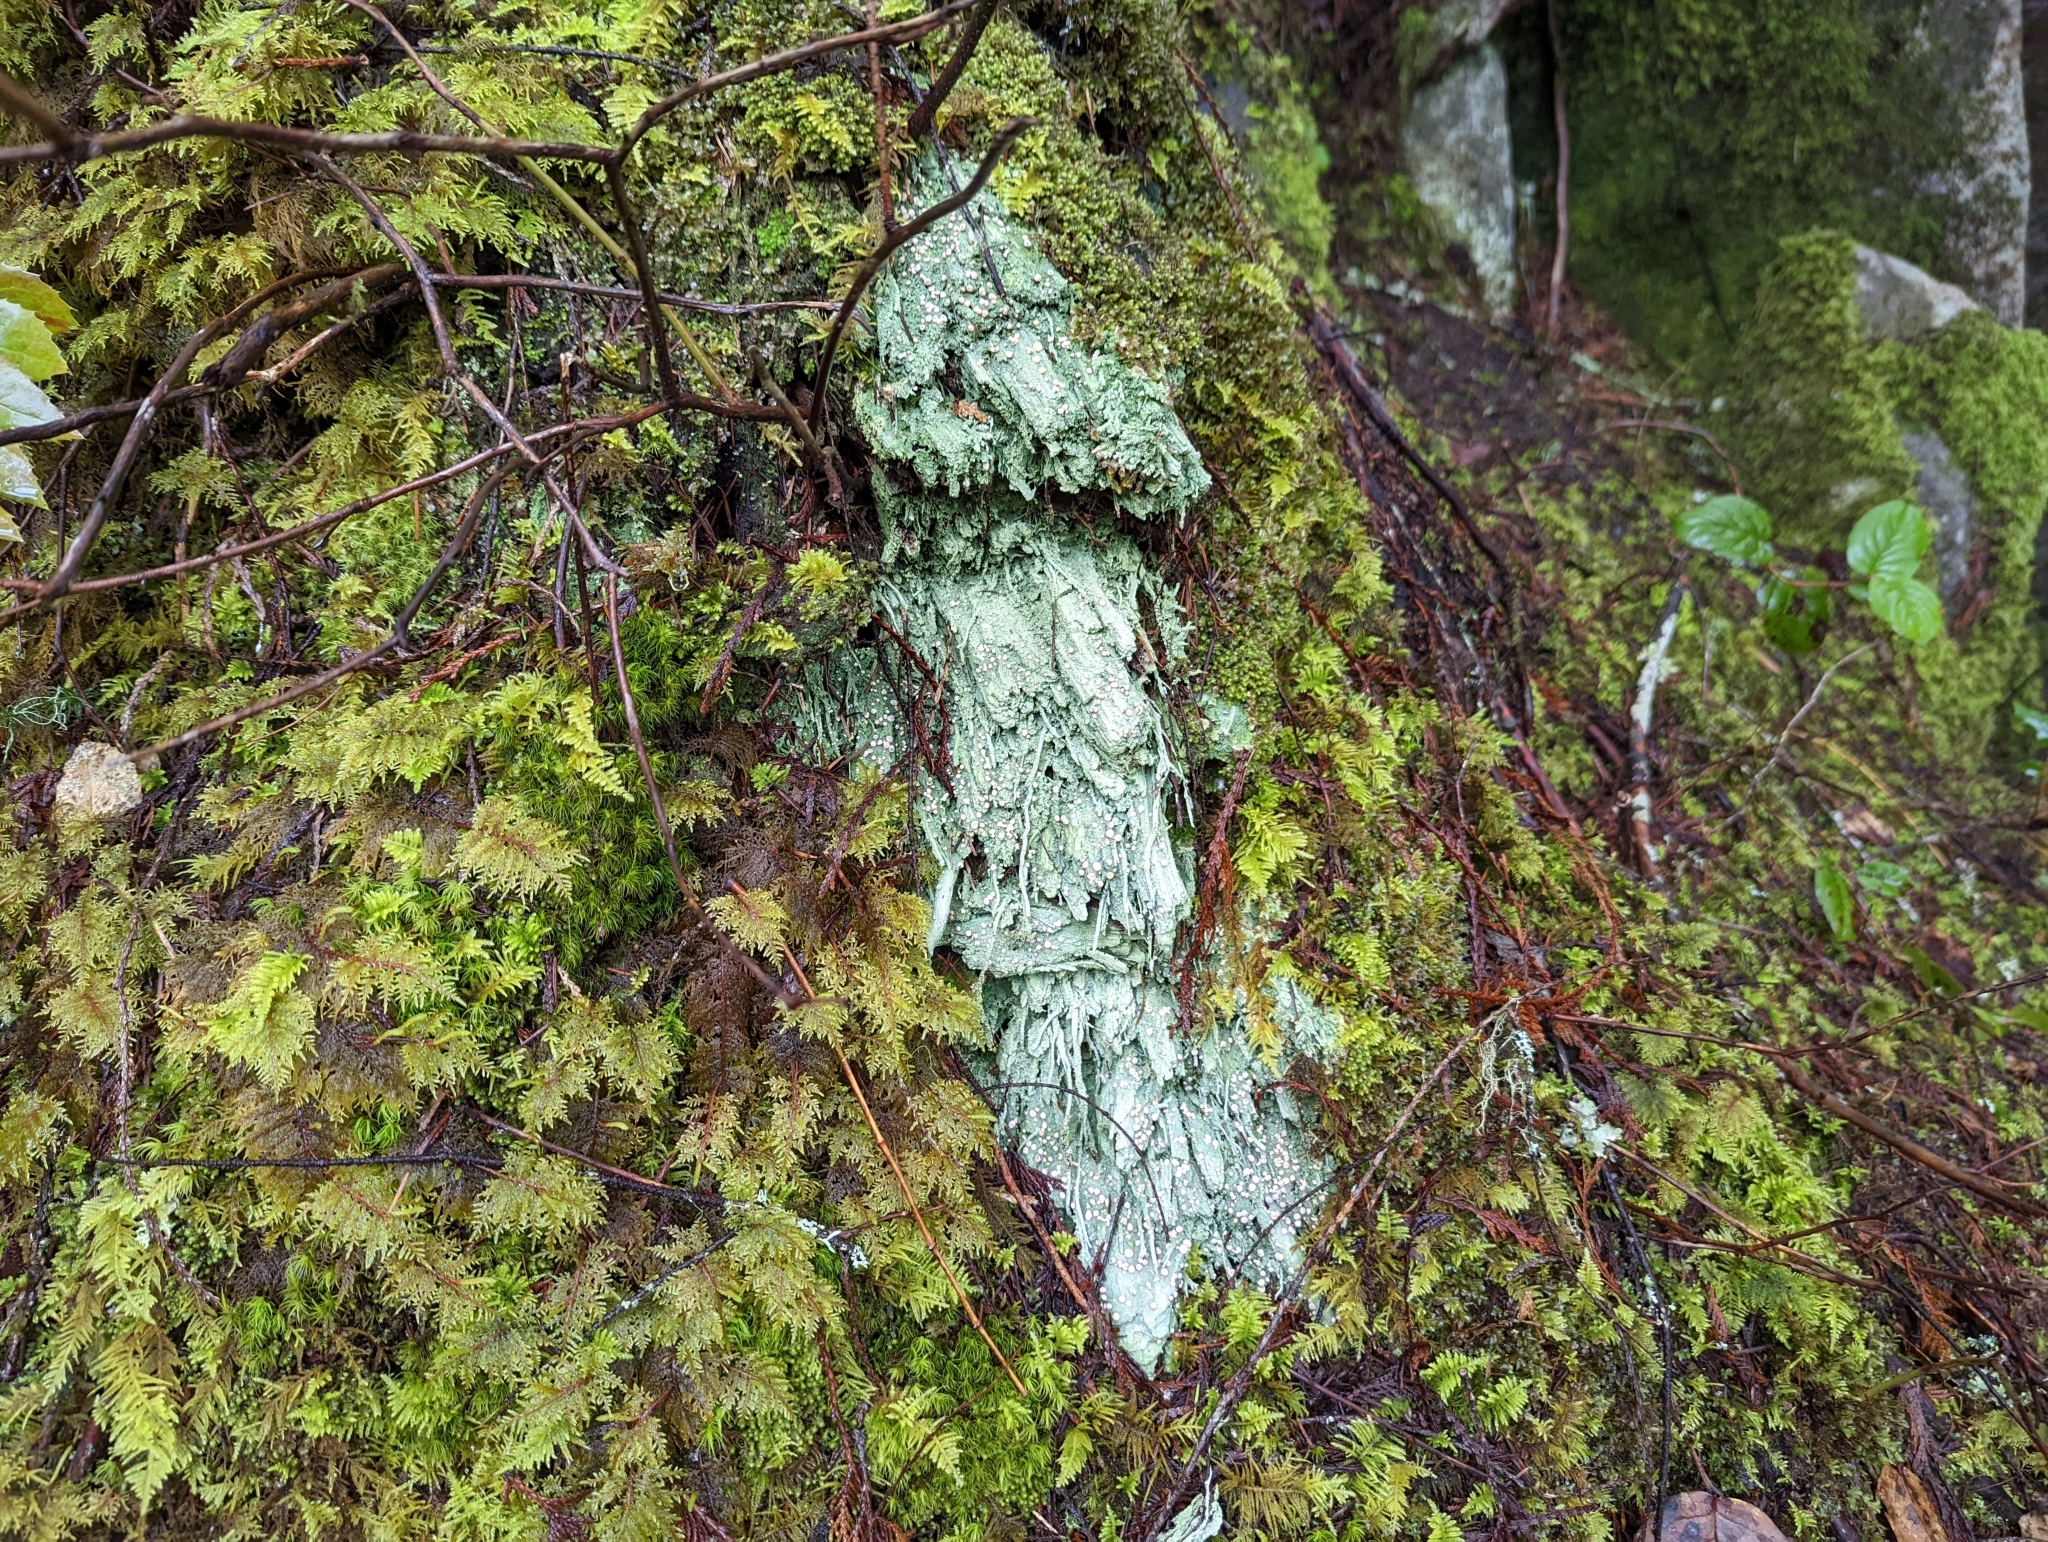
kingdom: Fungi
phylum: Ascomycota
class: Lecanoromycetes
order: Pertusariales
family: Icmadophilaceae
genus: Icmadophila
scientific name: Icmadophila ericetorum
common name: Candy lichen
